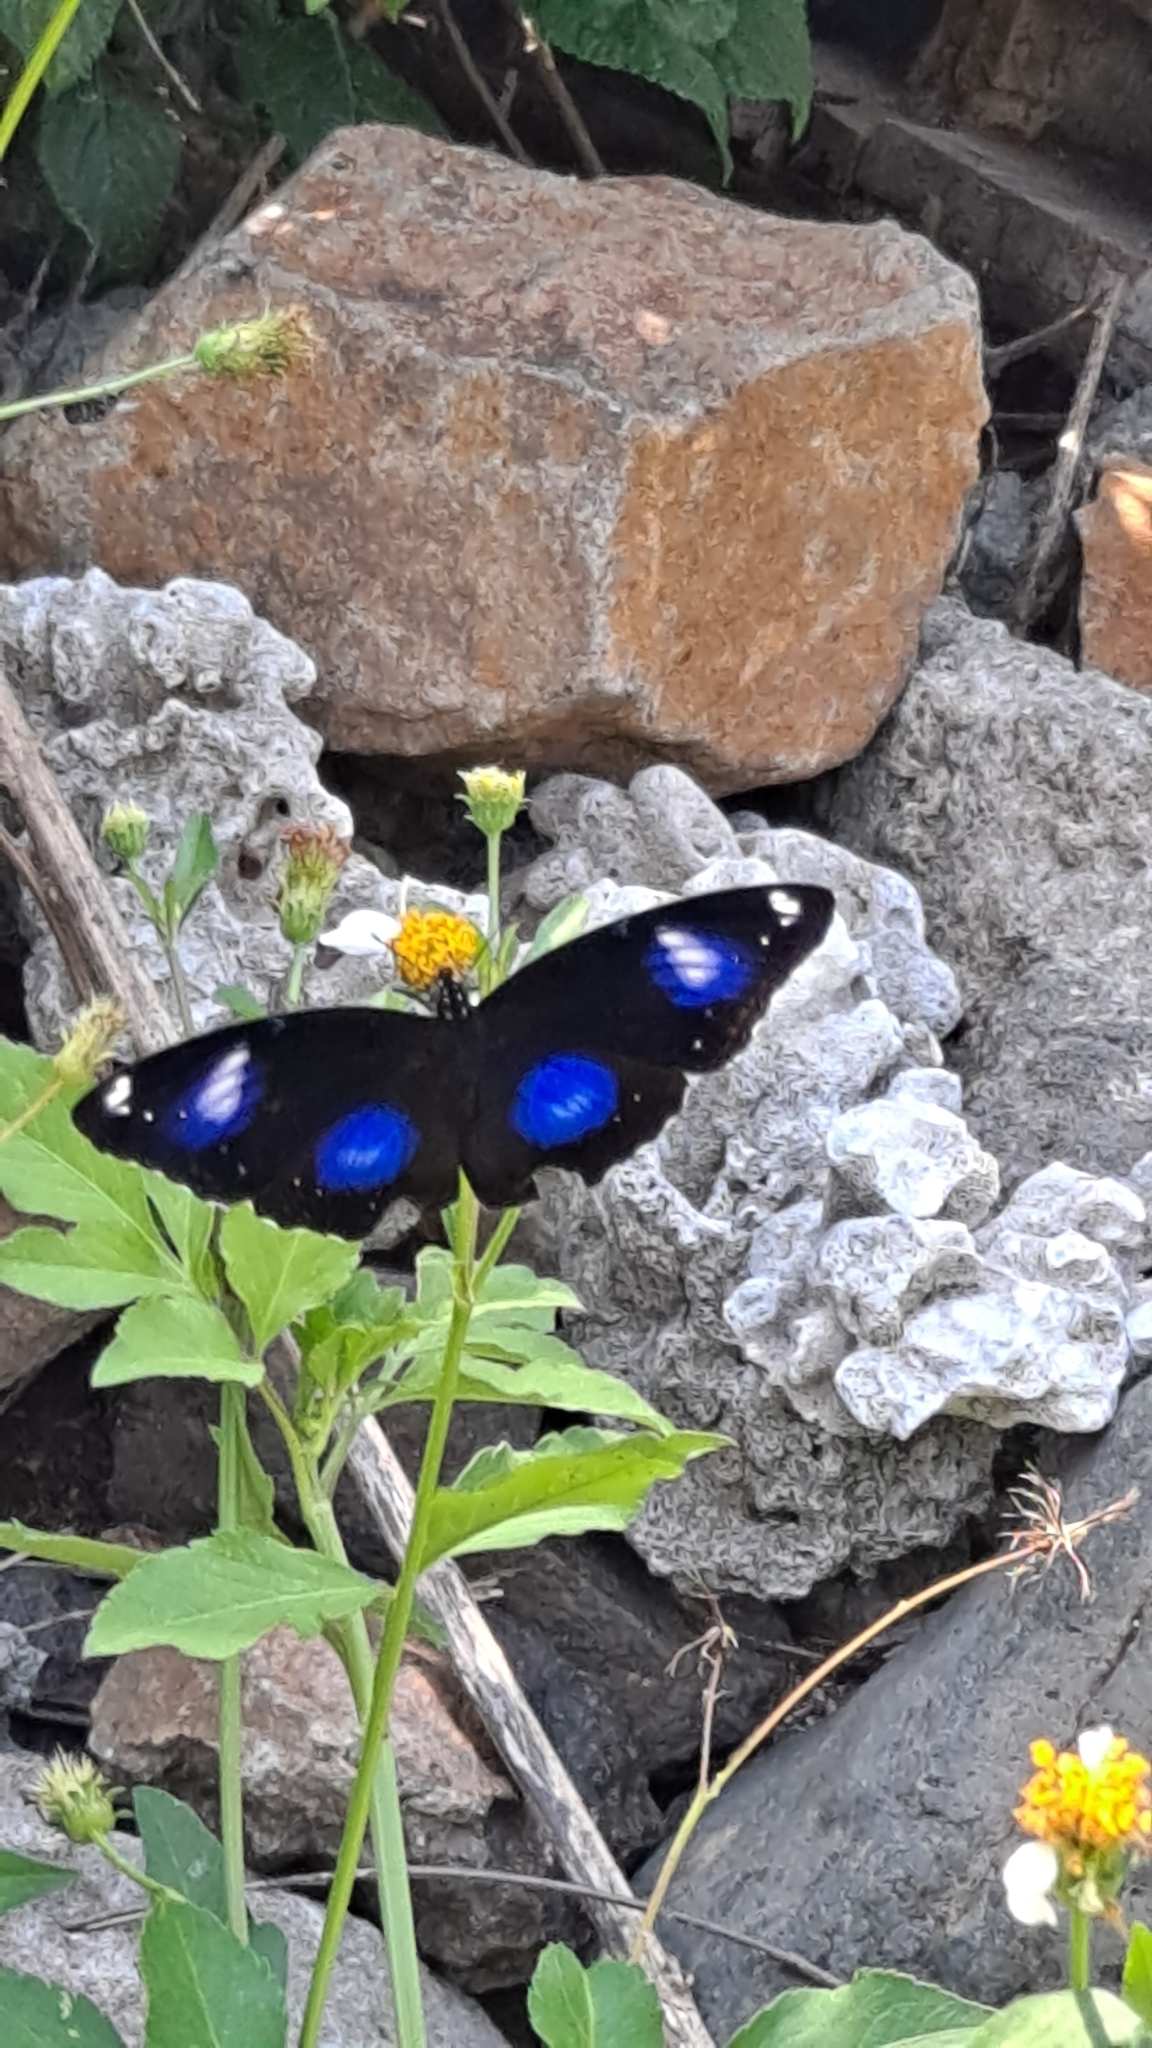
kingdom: Animalia
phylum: Arthropoda
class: Insecta
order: Lepidoptera
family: Nymphalidae
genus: Hypolimnas
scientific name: Hypolimnas bolina
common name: Great eggfly
